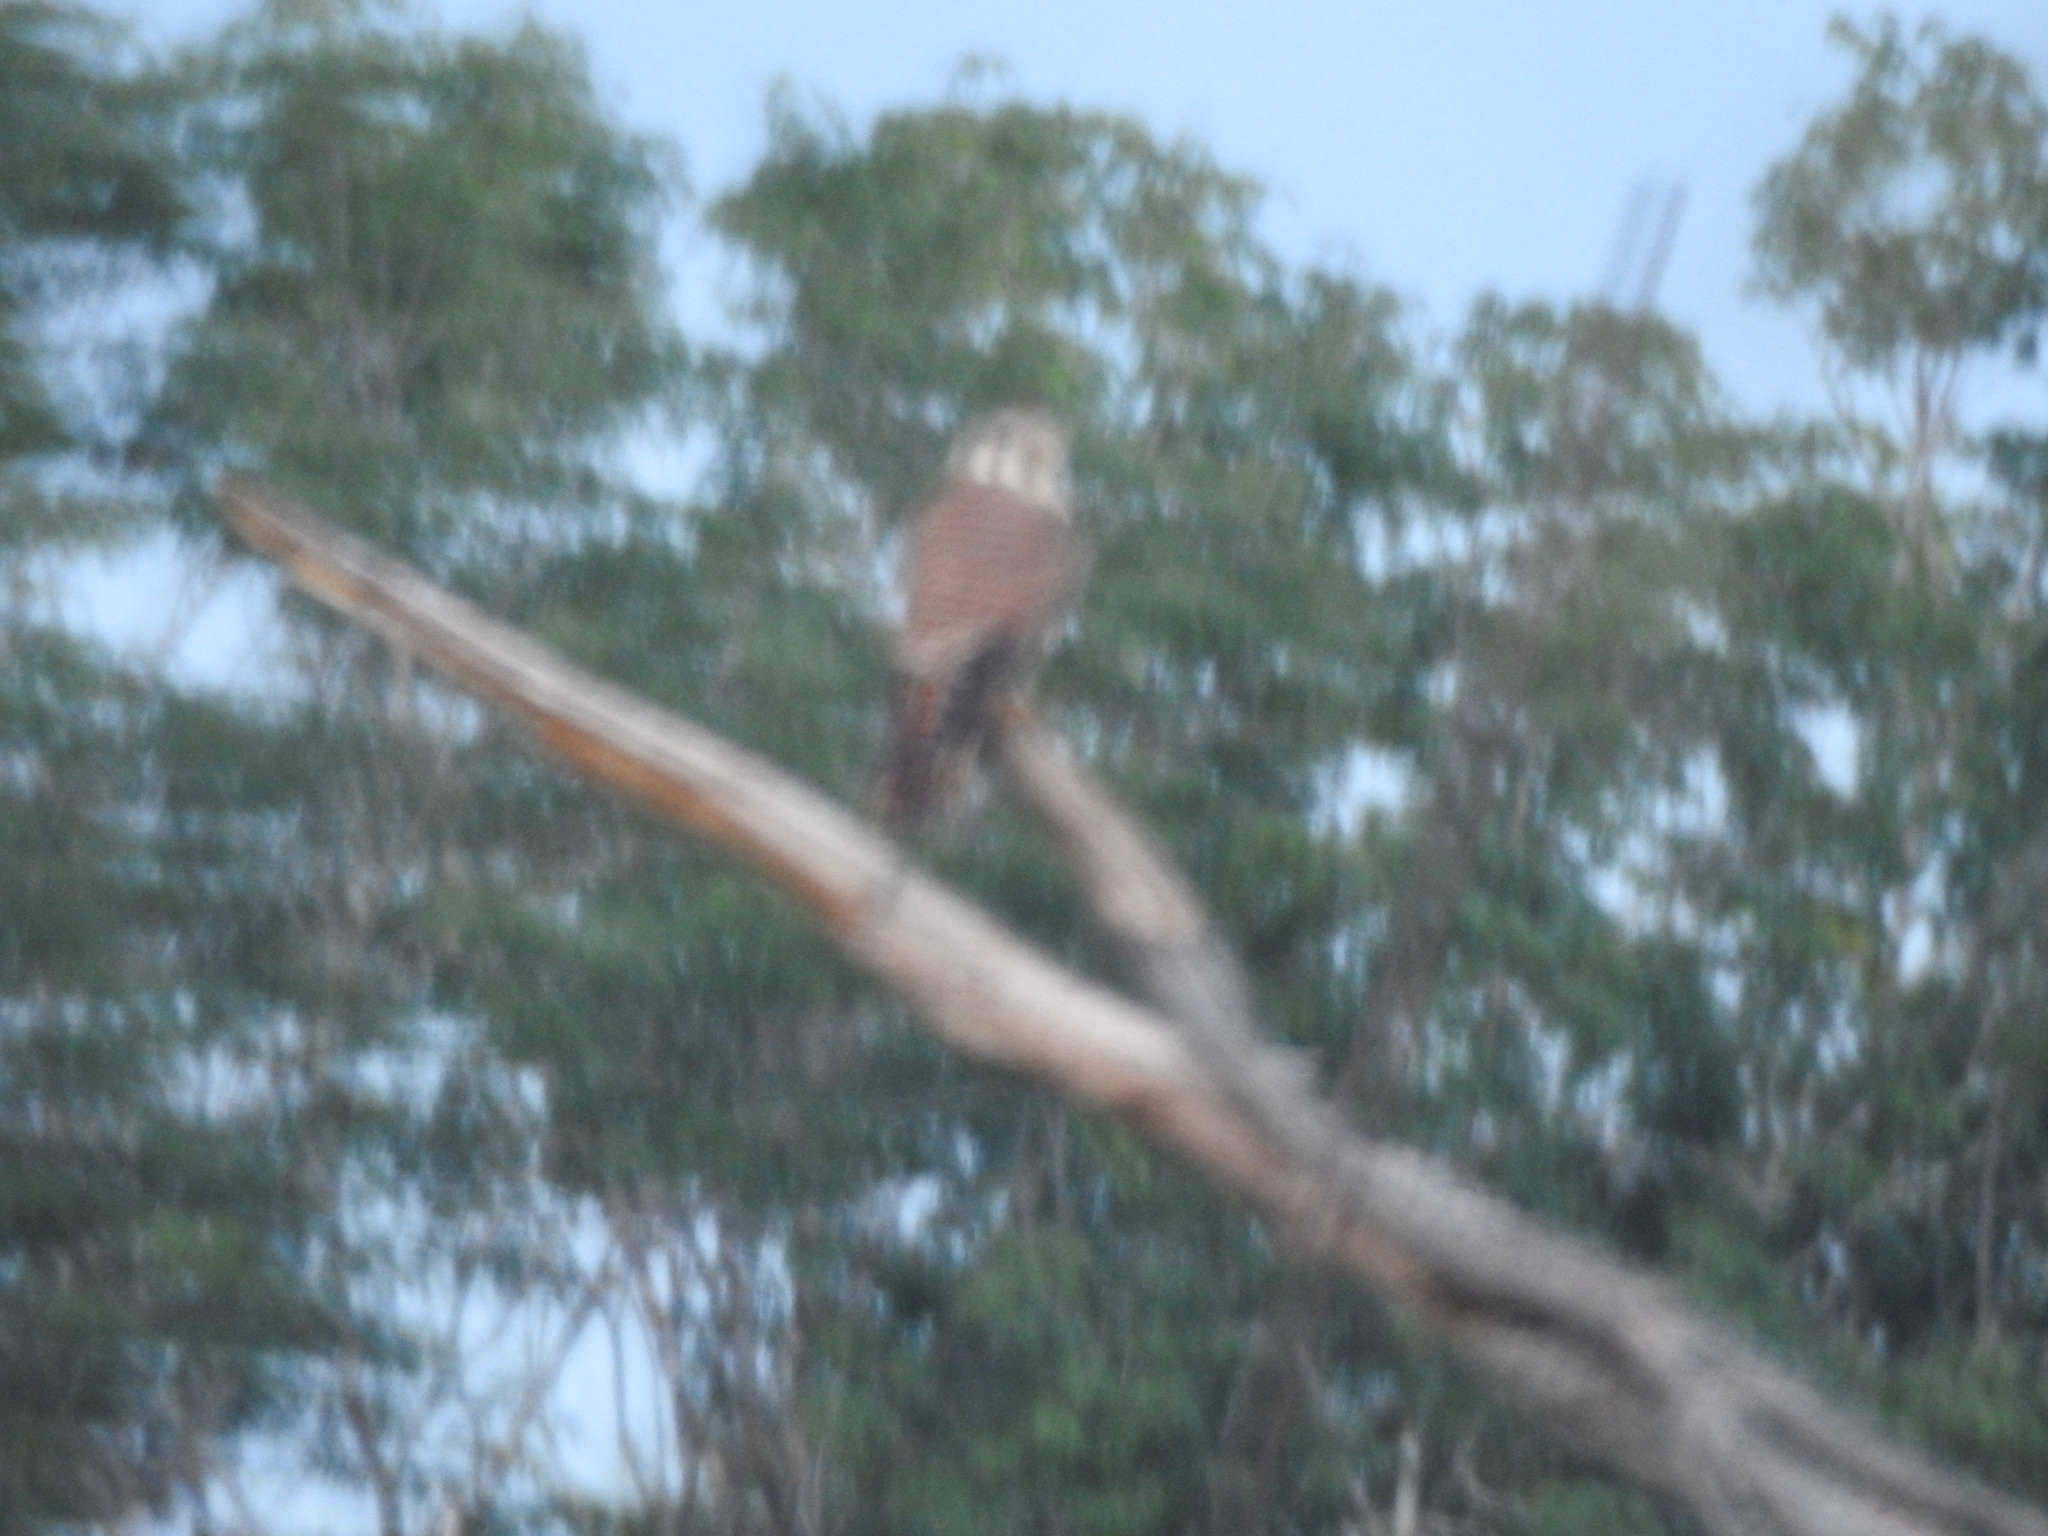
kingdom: Animalia
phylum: Chordata
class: Aves
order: Falconiformes
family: Falconidae
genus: Falco
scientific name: Falco sparverius
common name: American kestrel
